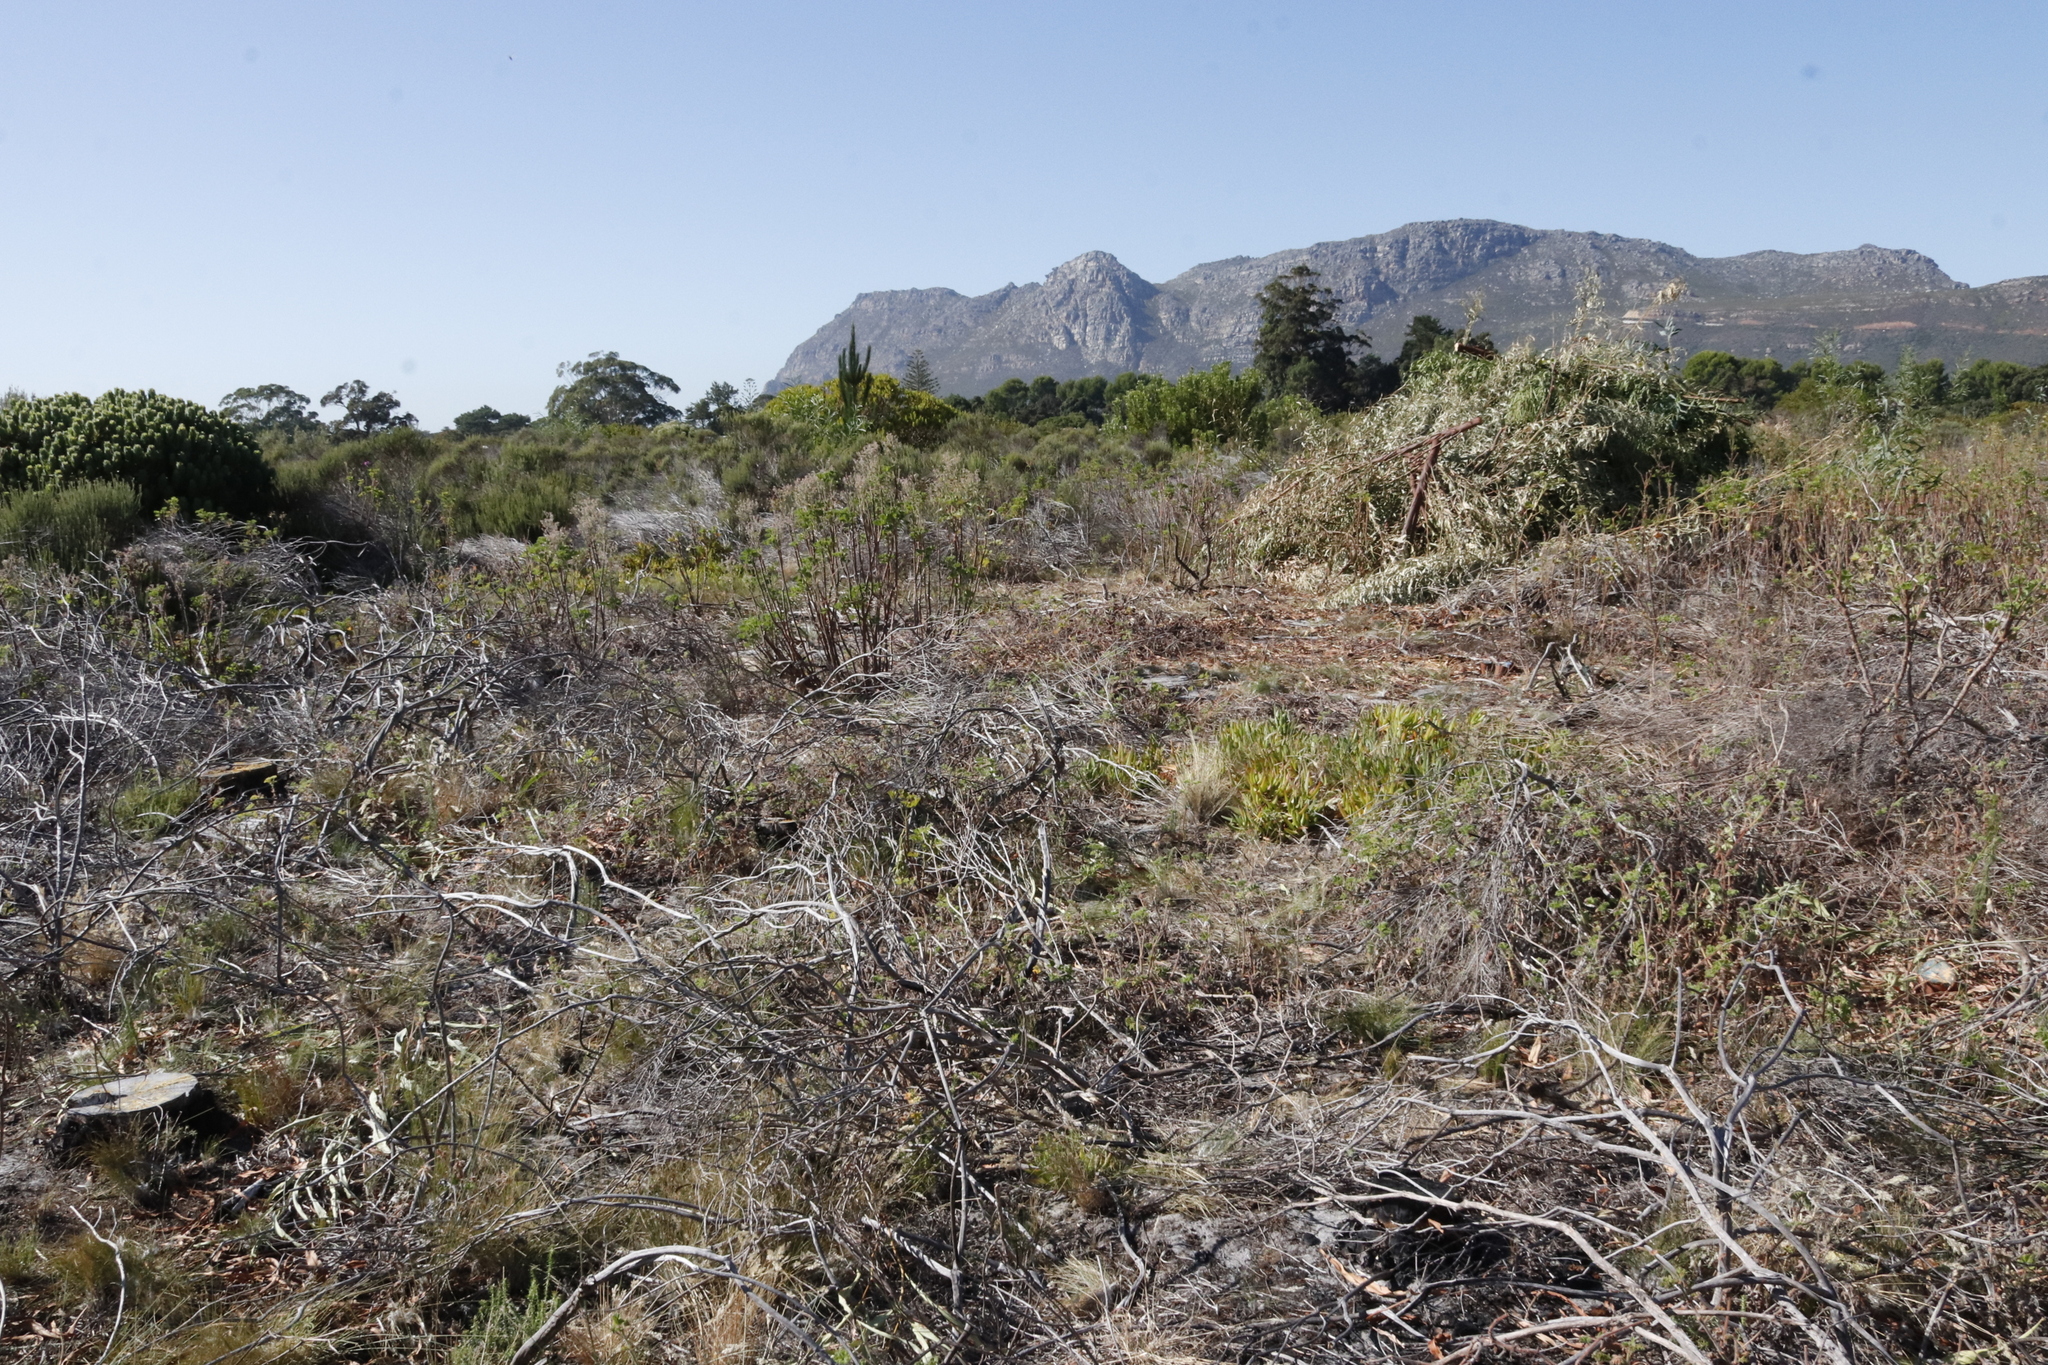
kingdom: Plantae
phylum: Tracheophyta
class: Magnoliopsida
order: Fabales
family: Fabaceae
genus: Acacia
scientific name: Acacia saligna
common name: Orange wattle
